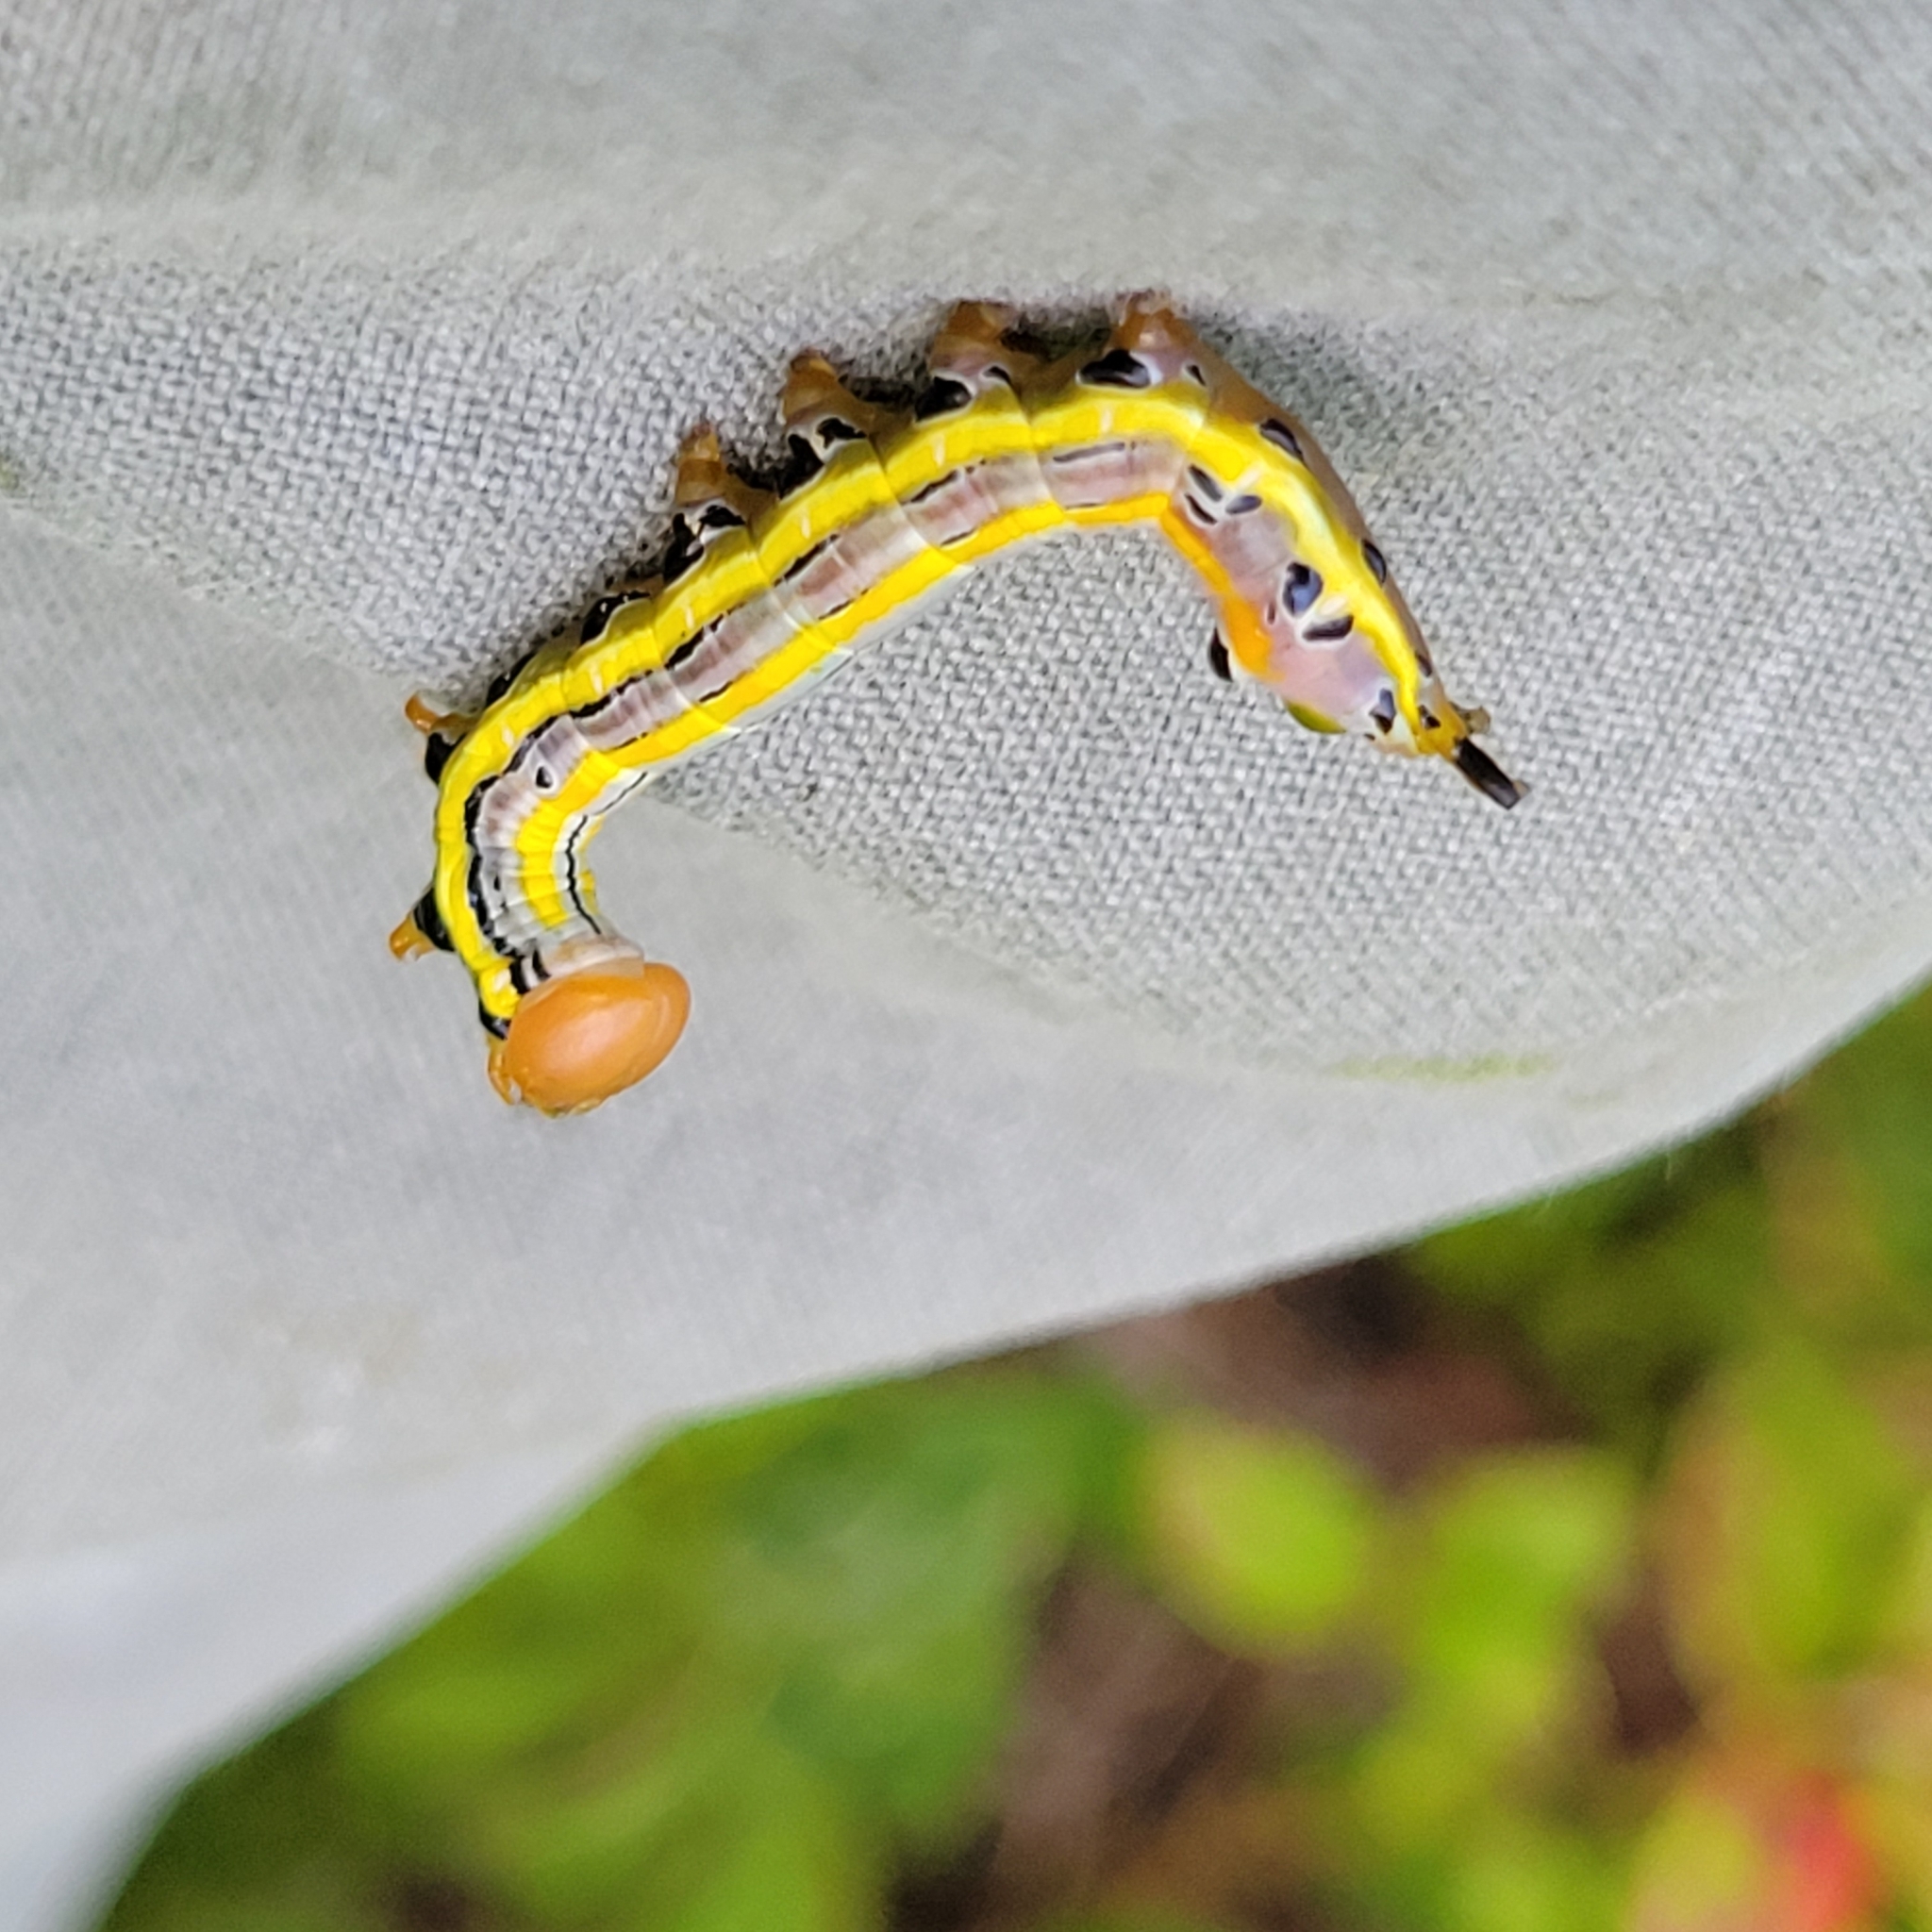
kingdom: Animalia
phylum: Arthropoda
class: Insecta
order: Lepidoptera
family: Notodontidae
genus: Dasylophia
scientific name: Dasylophia anguina
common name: Black-spotted prominent
